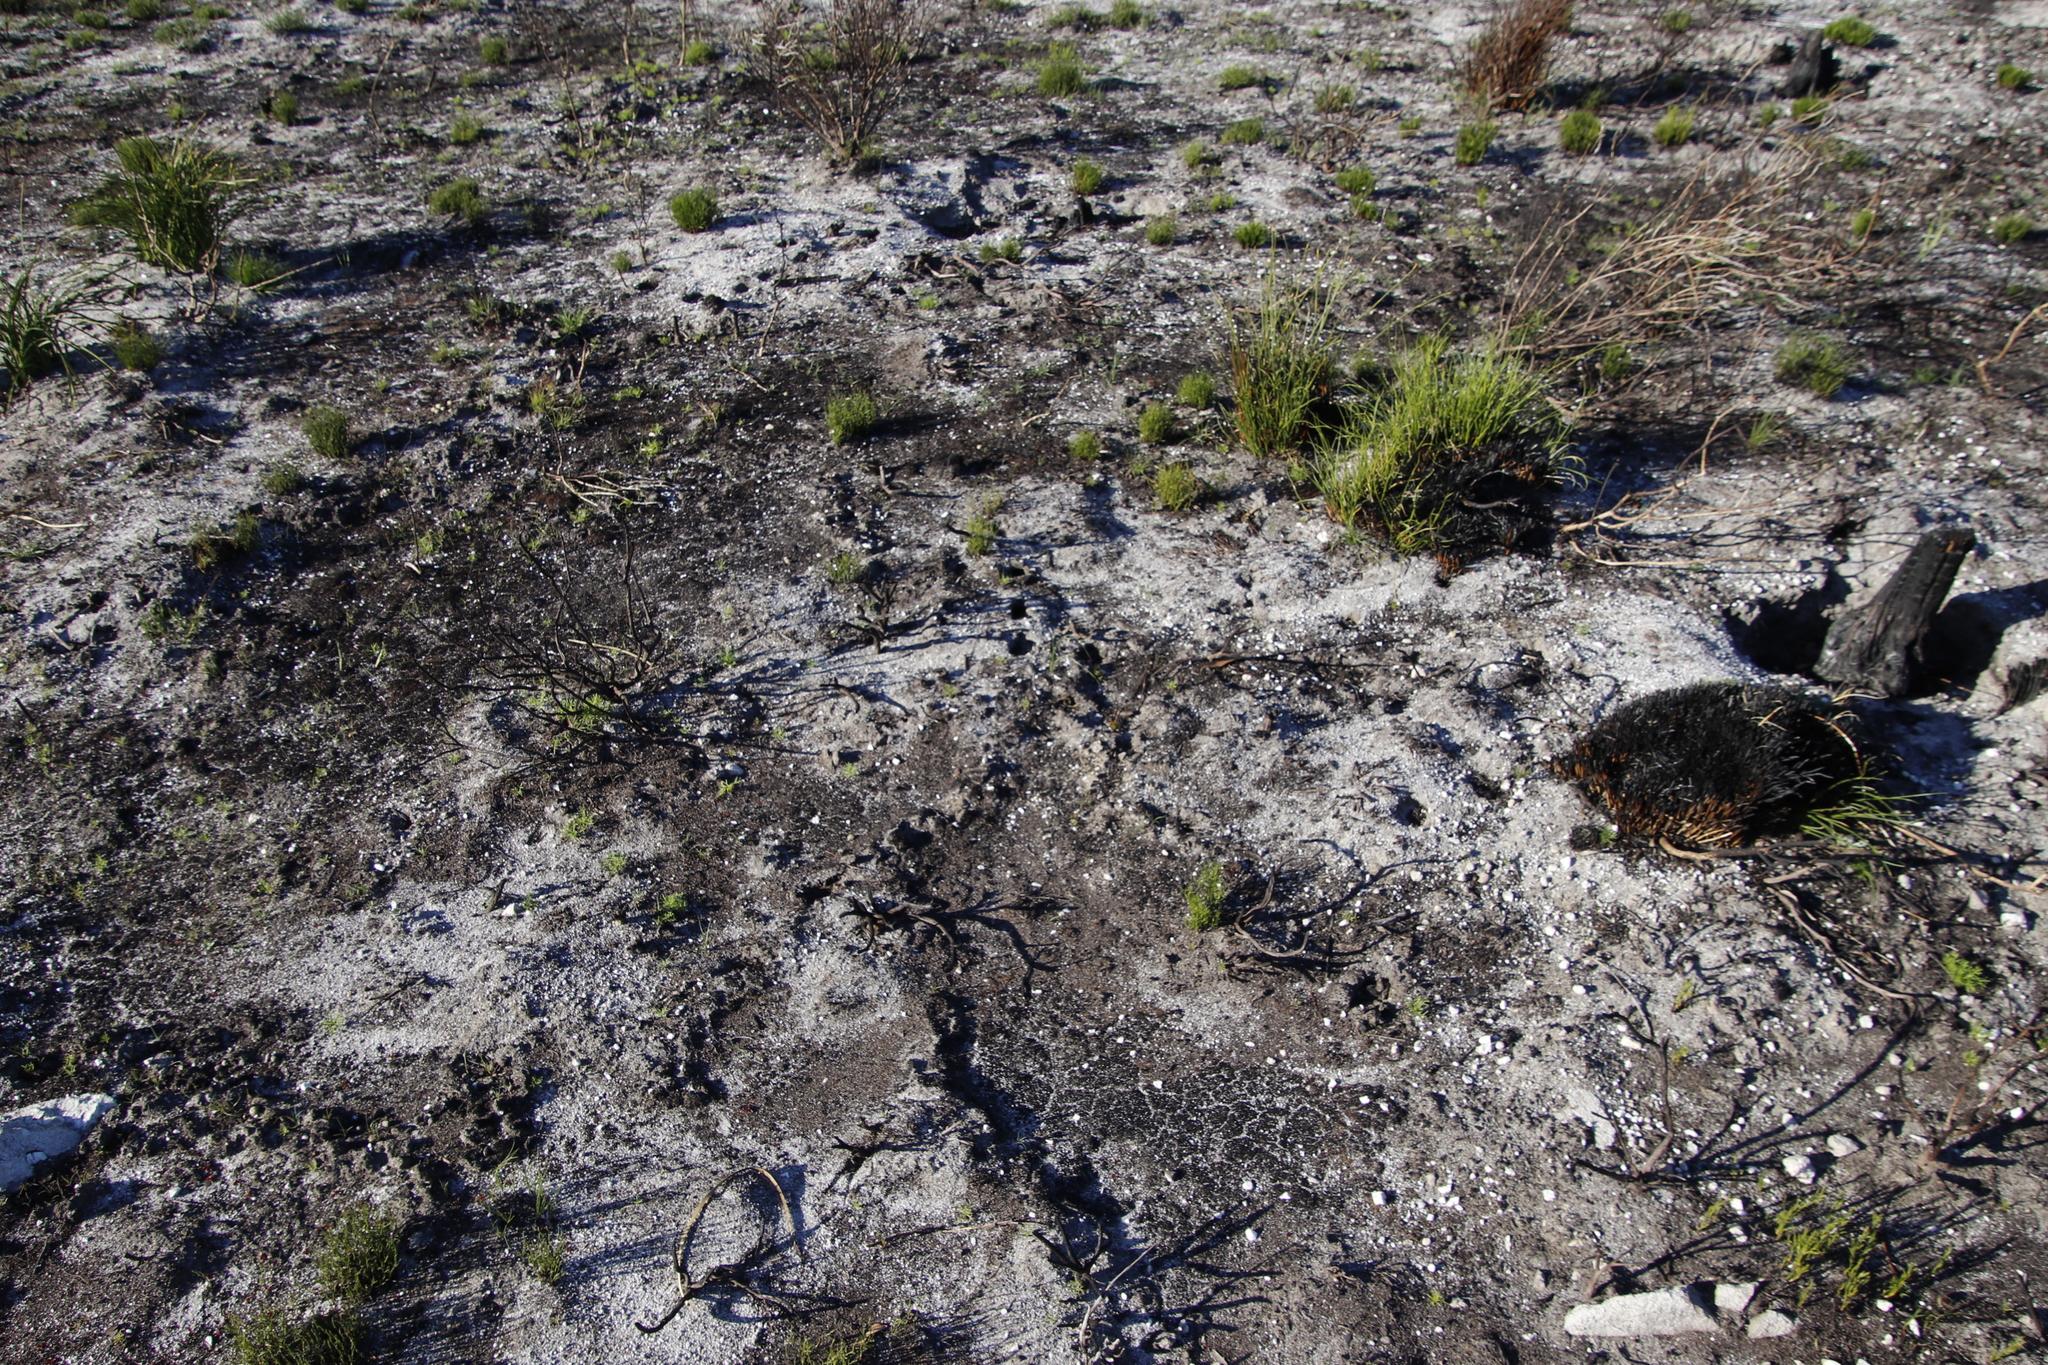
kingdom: Animalia
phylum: Chordata
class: Mammalia
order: Afrosoricida
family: Chrysochloridae
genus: Chrysochloris
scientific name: Chrysochloris asiatica
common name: Cape golden mole
